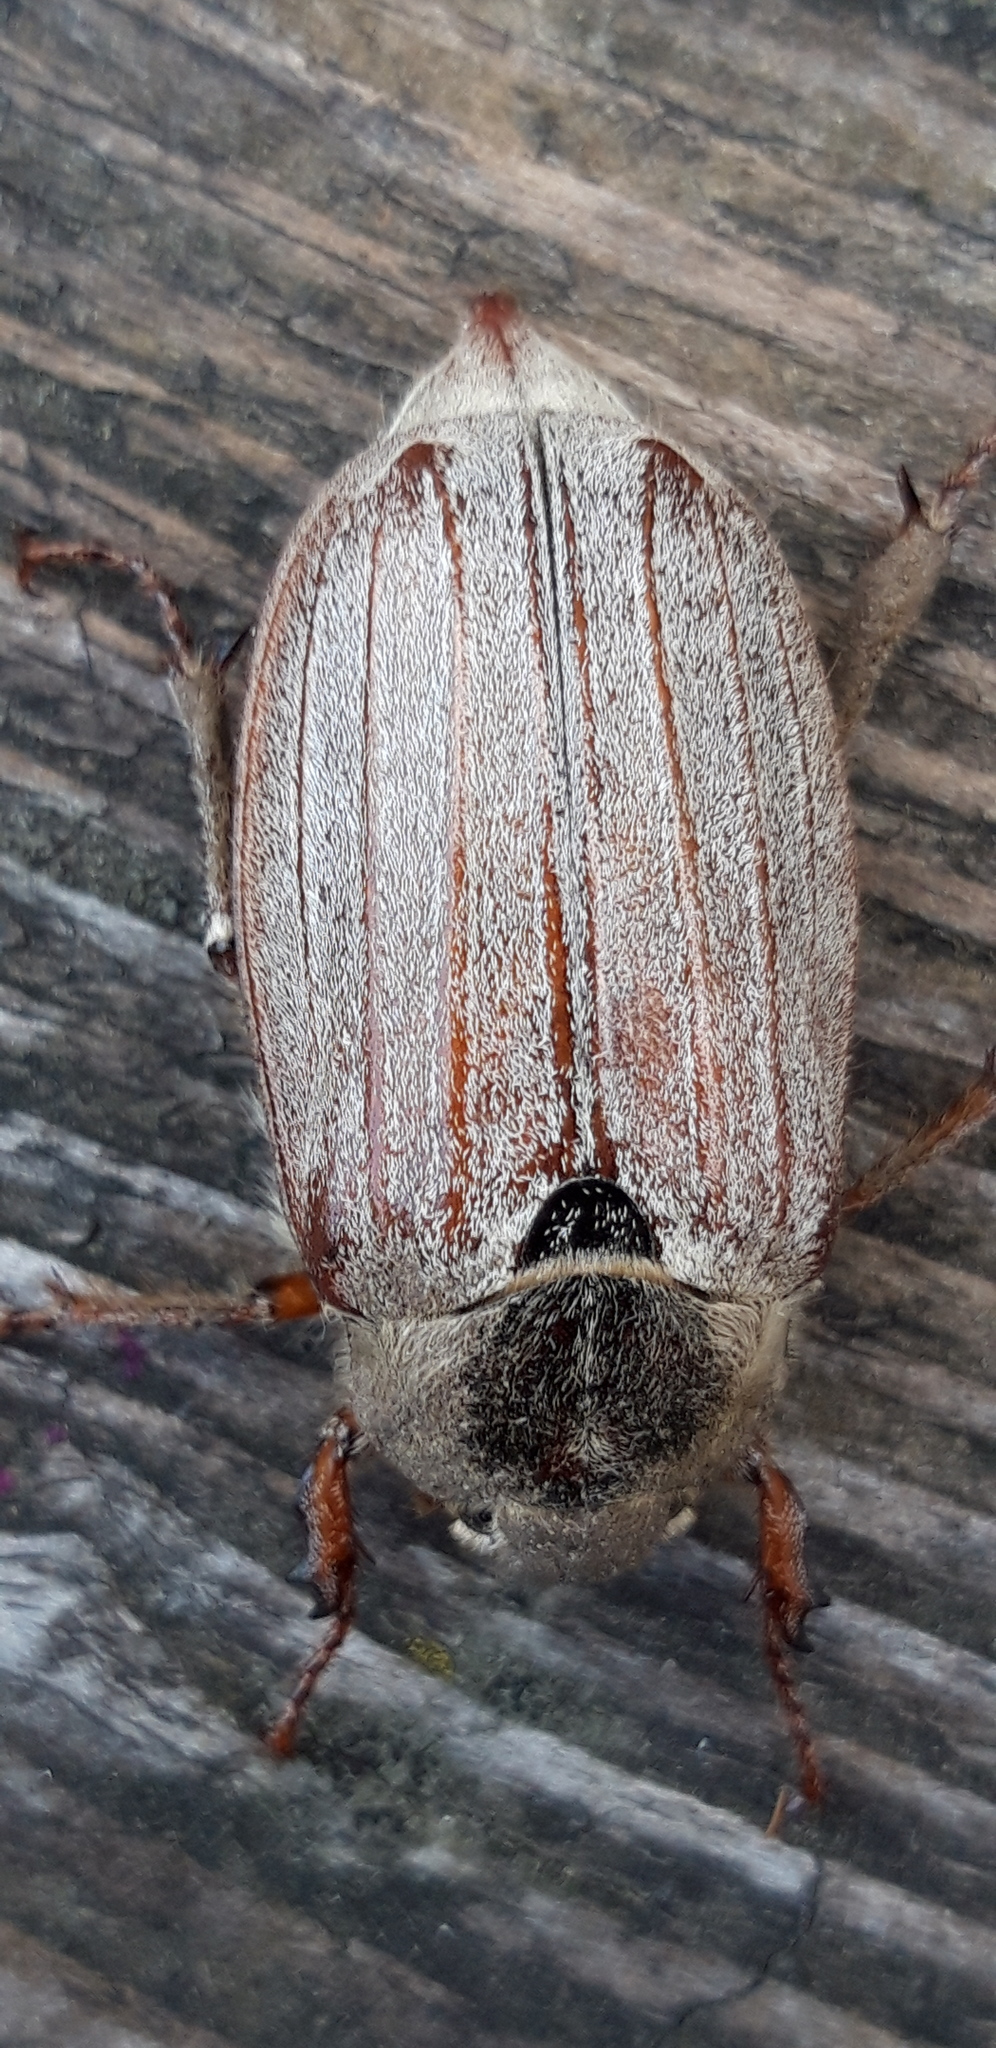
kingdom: Animalia
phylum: Arthropoda
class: Insecta
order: Coleoptera
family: Scarabaeidae
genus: Melolontha
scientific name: Melolontha melolontha
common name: Cockchafer maybeetle
